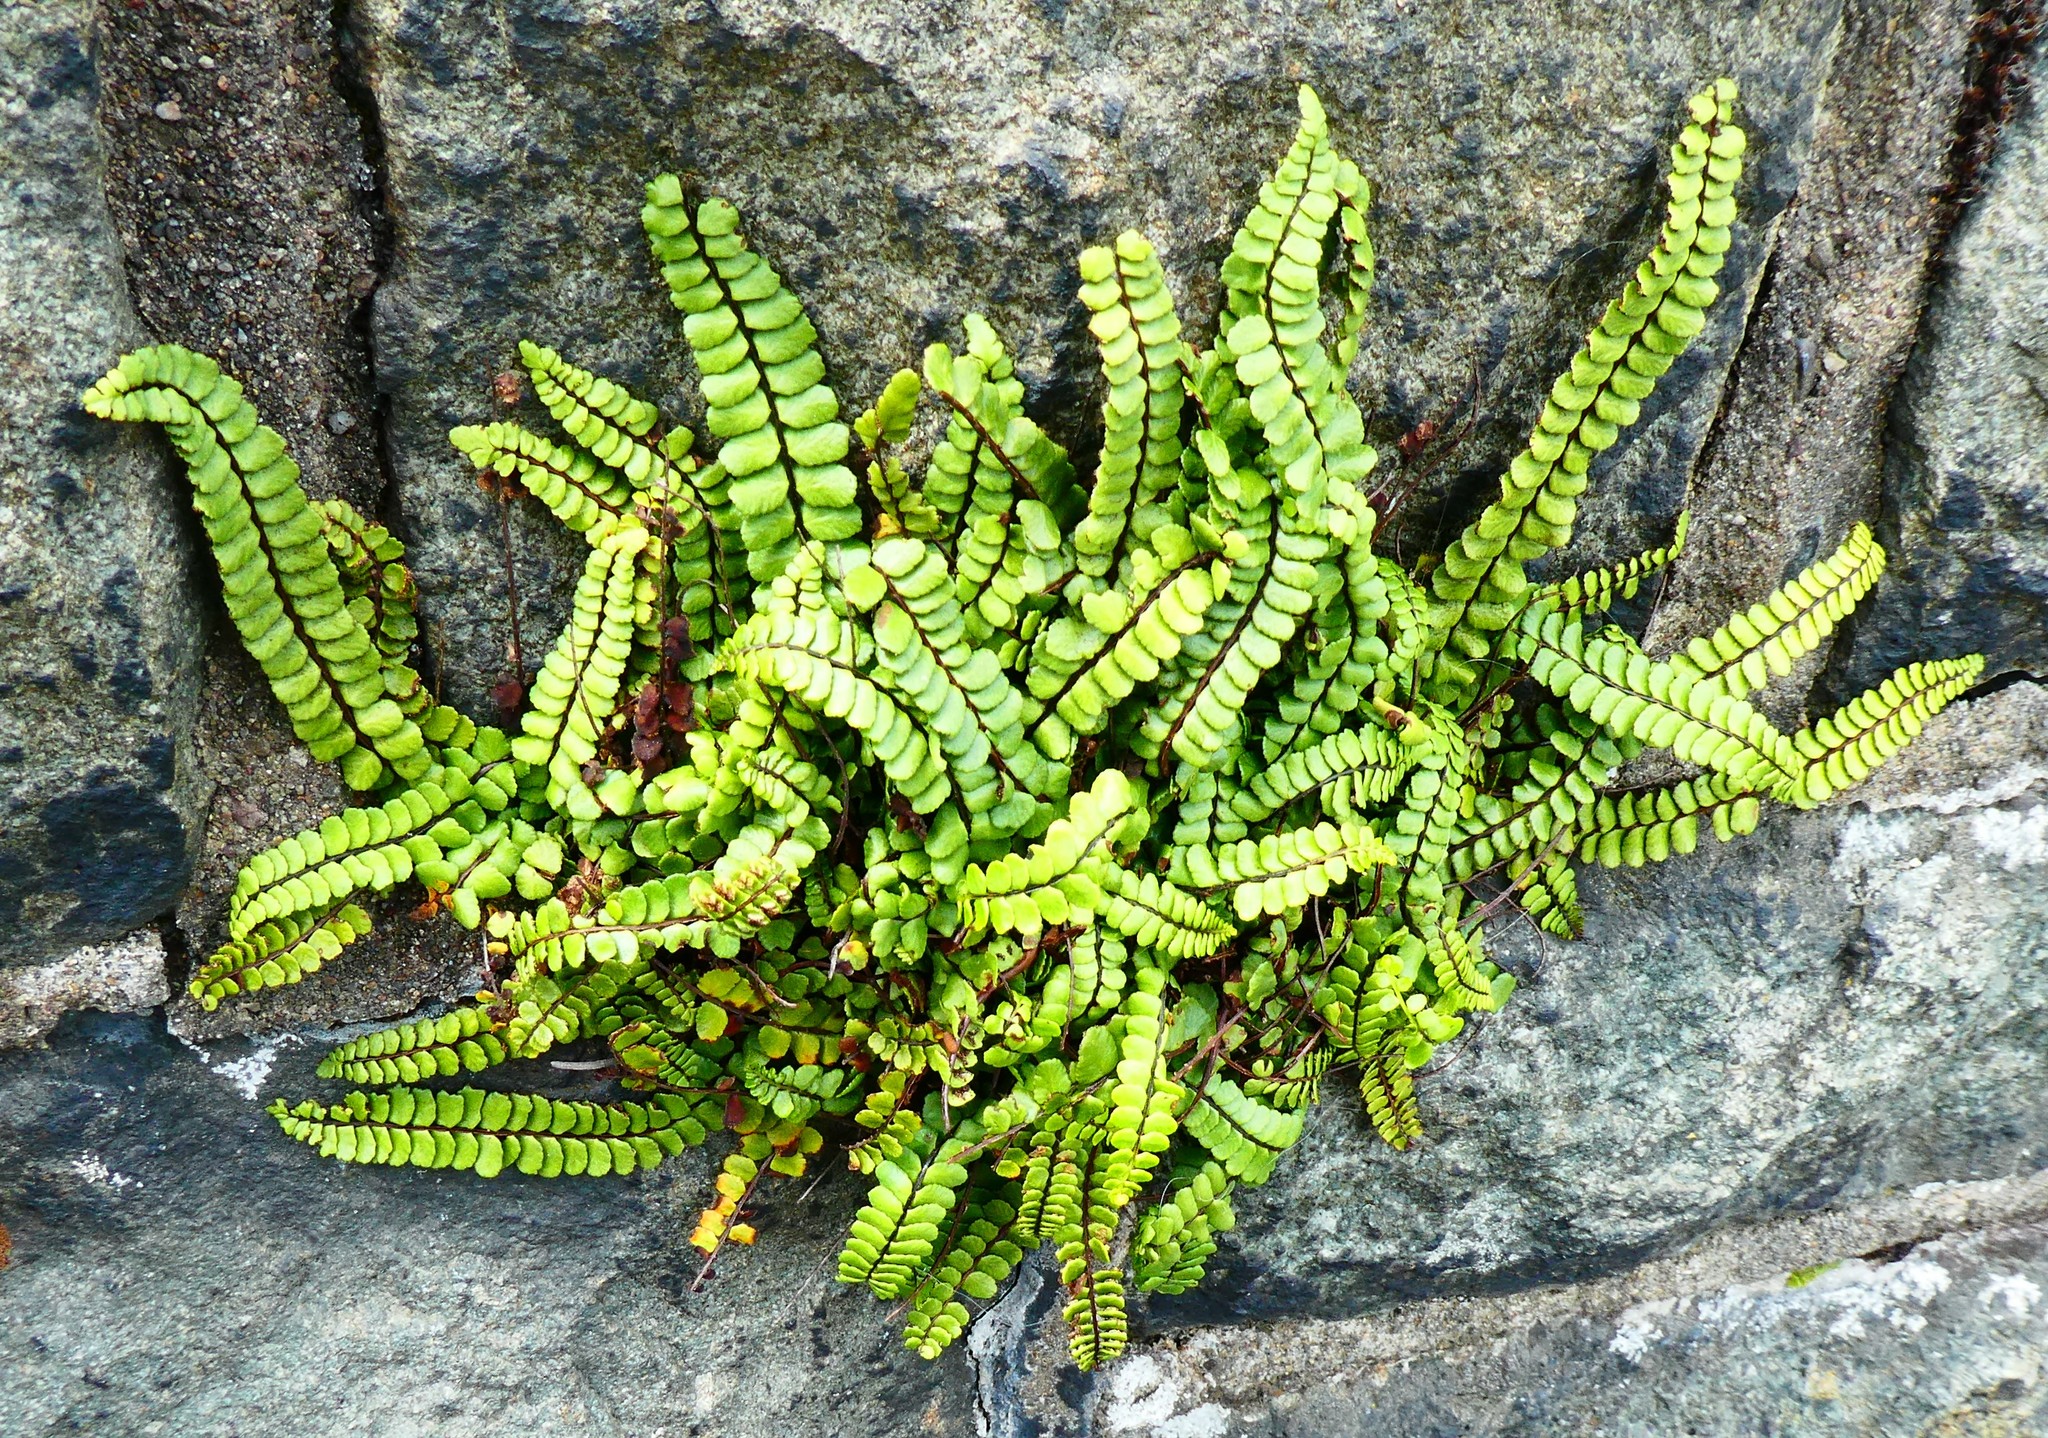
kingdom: Plantae
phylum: Tracheophyta
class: Polypodiopsida
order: Polypodiales
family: Aspleniaceae
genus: Asplenium
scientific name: Asplenium trichomanes
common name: Maidenhair spleenwort
